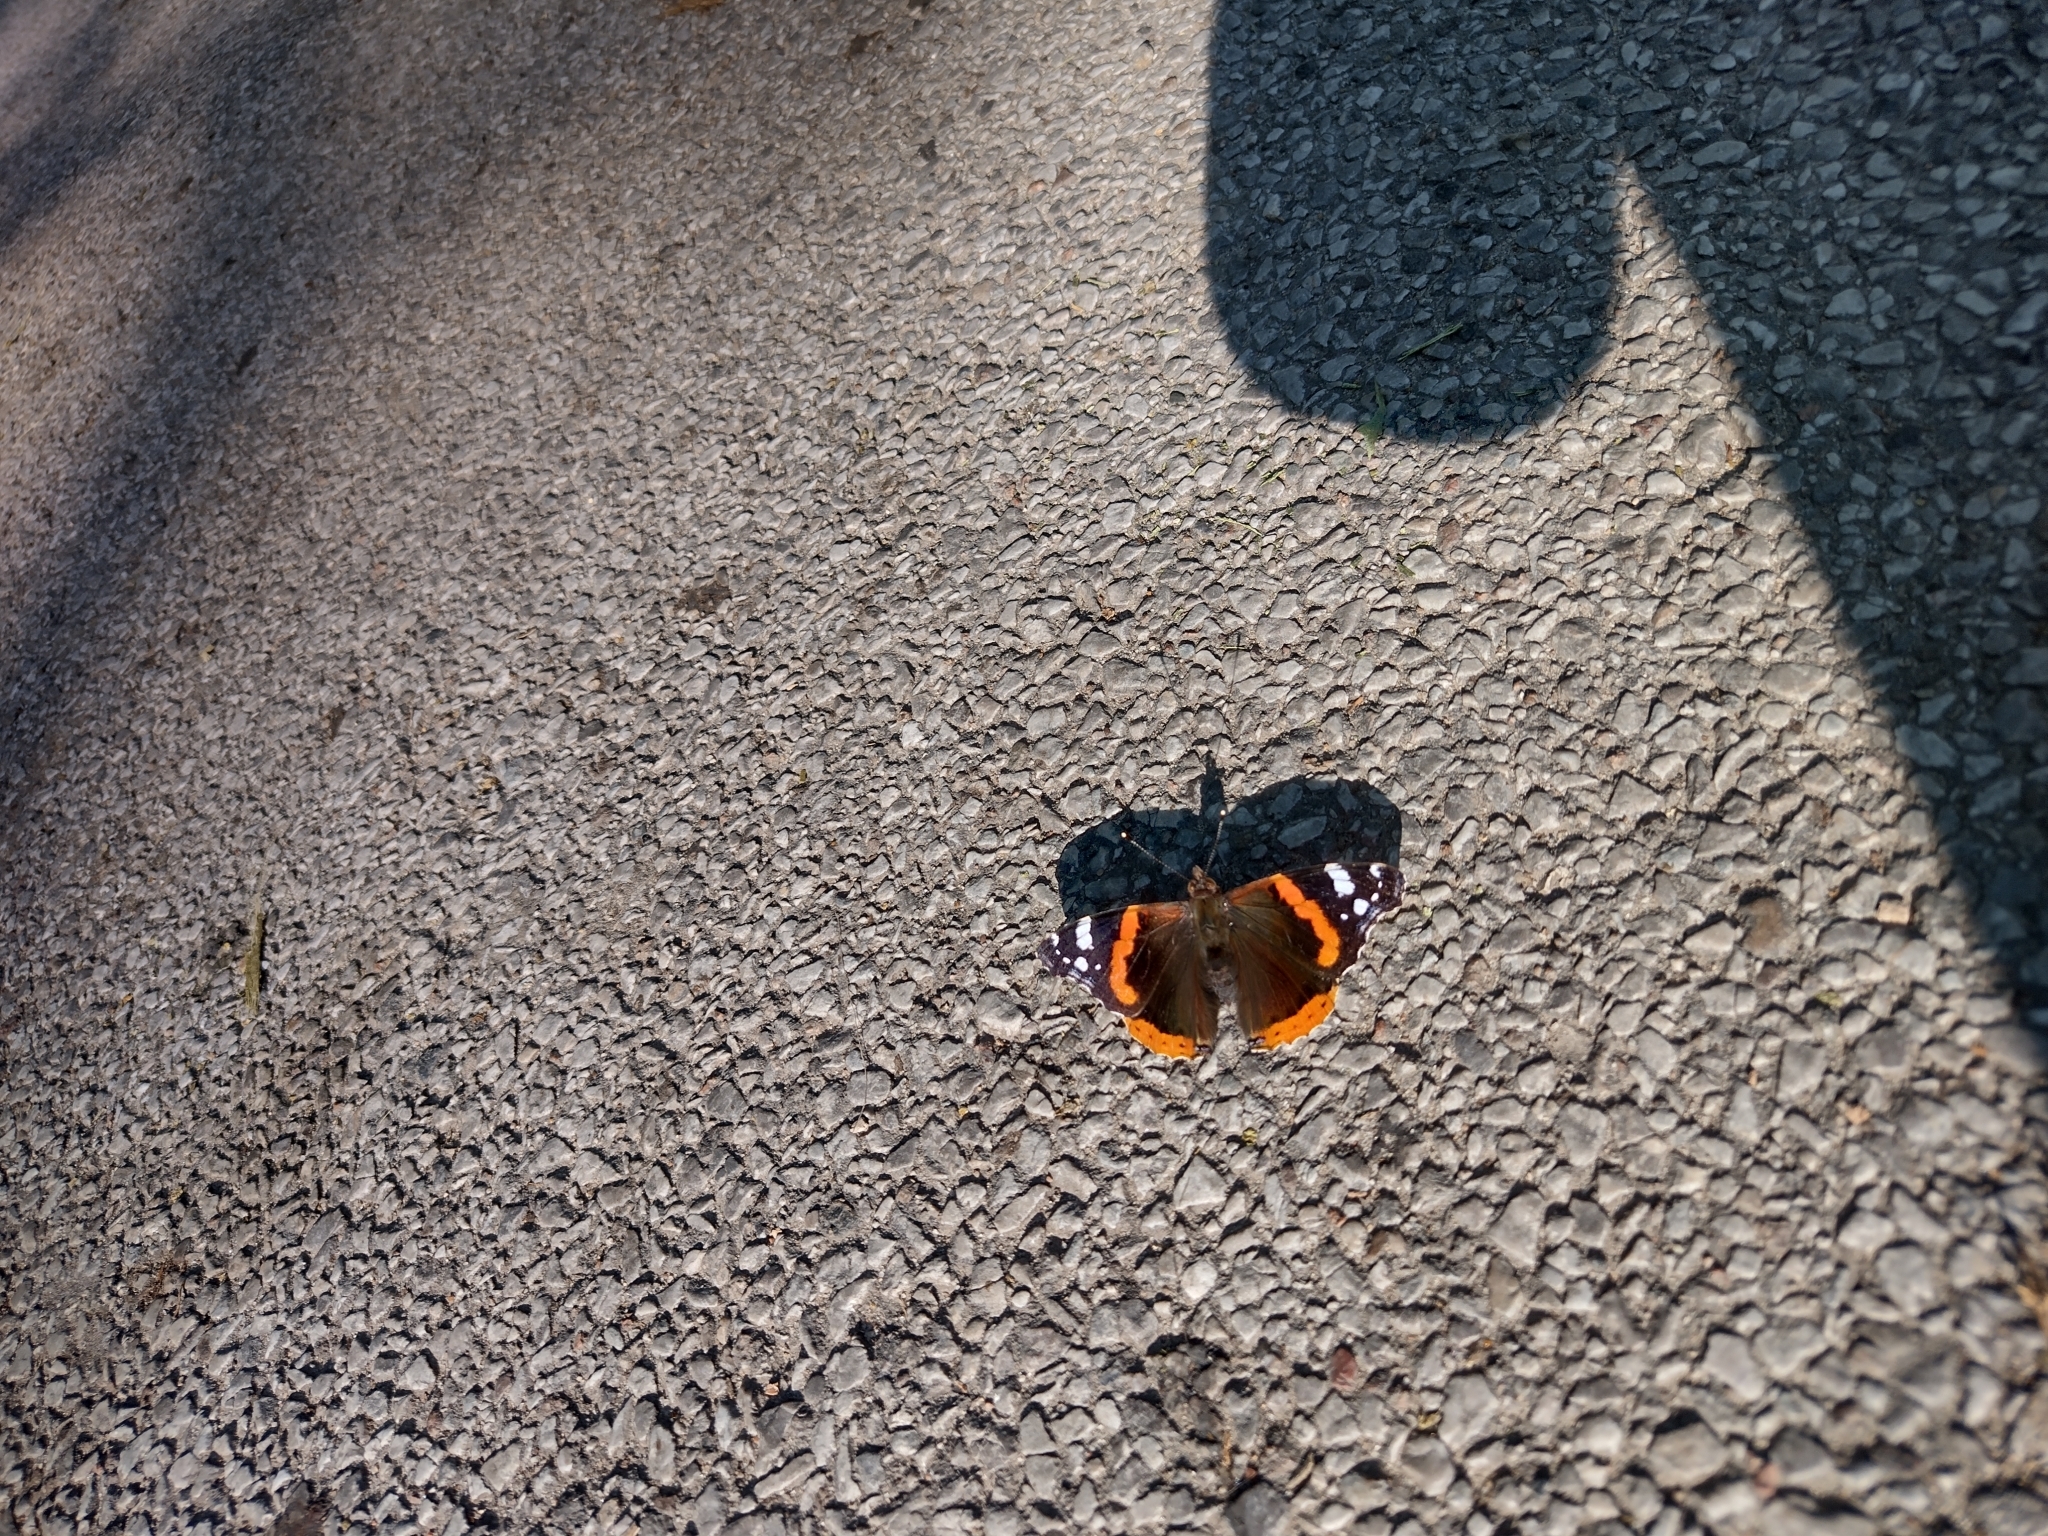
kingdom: Animalia
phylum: Arthropoda
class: Insecta
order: Lepidoptera
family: Nymphalidae
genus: Vanessa
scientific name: Vanessa atalanta
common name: Red admiral
